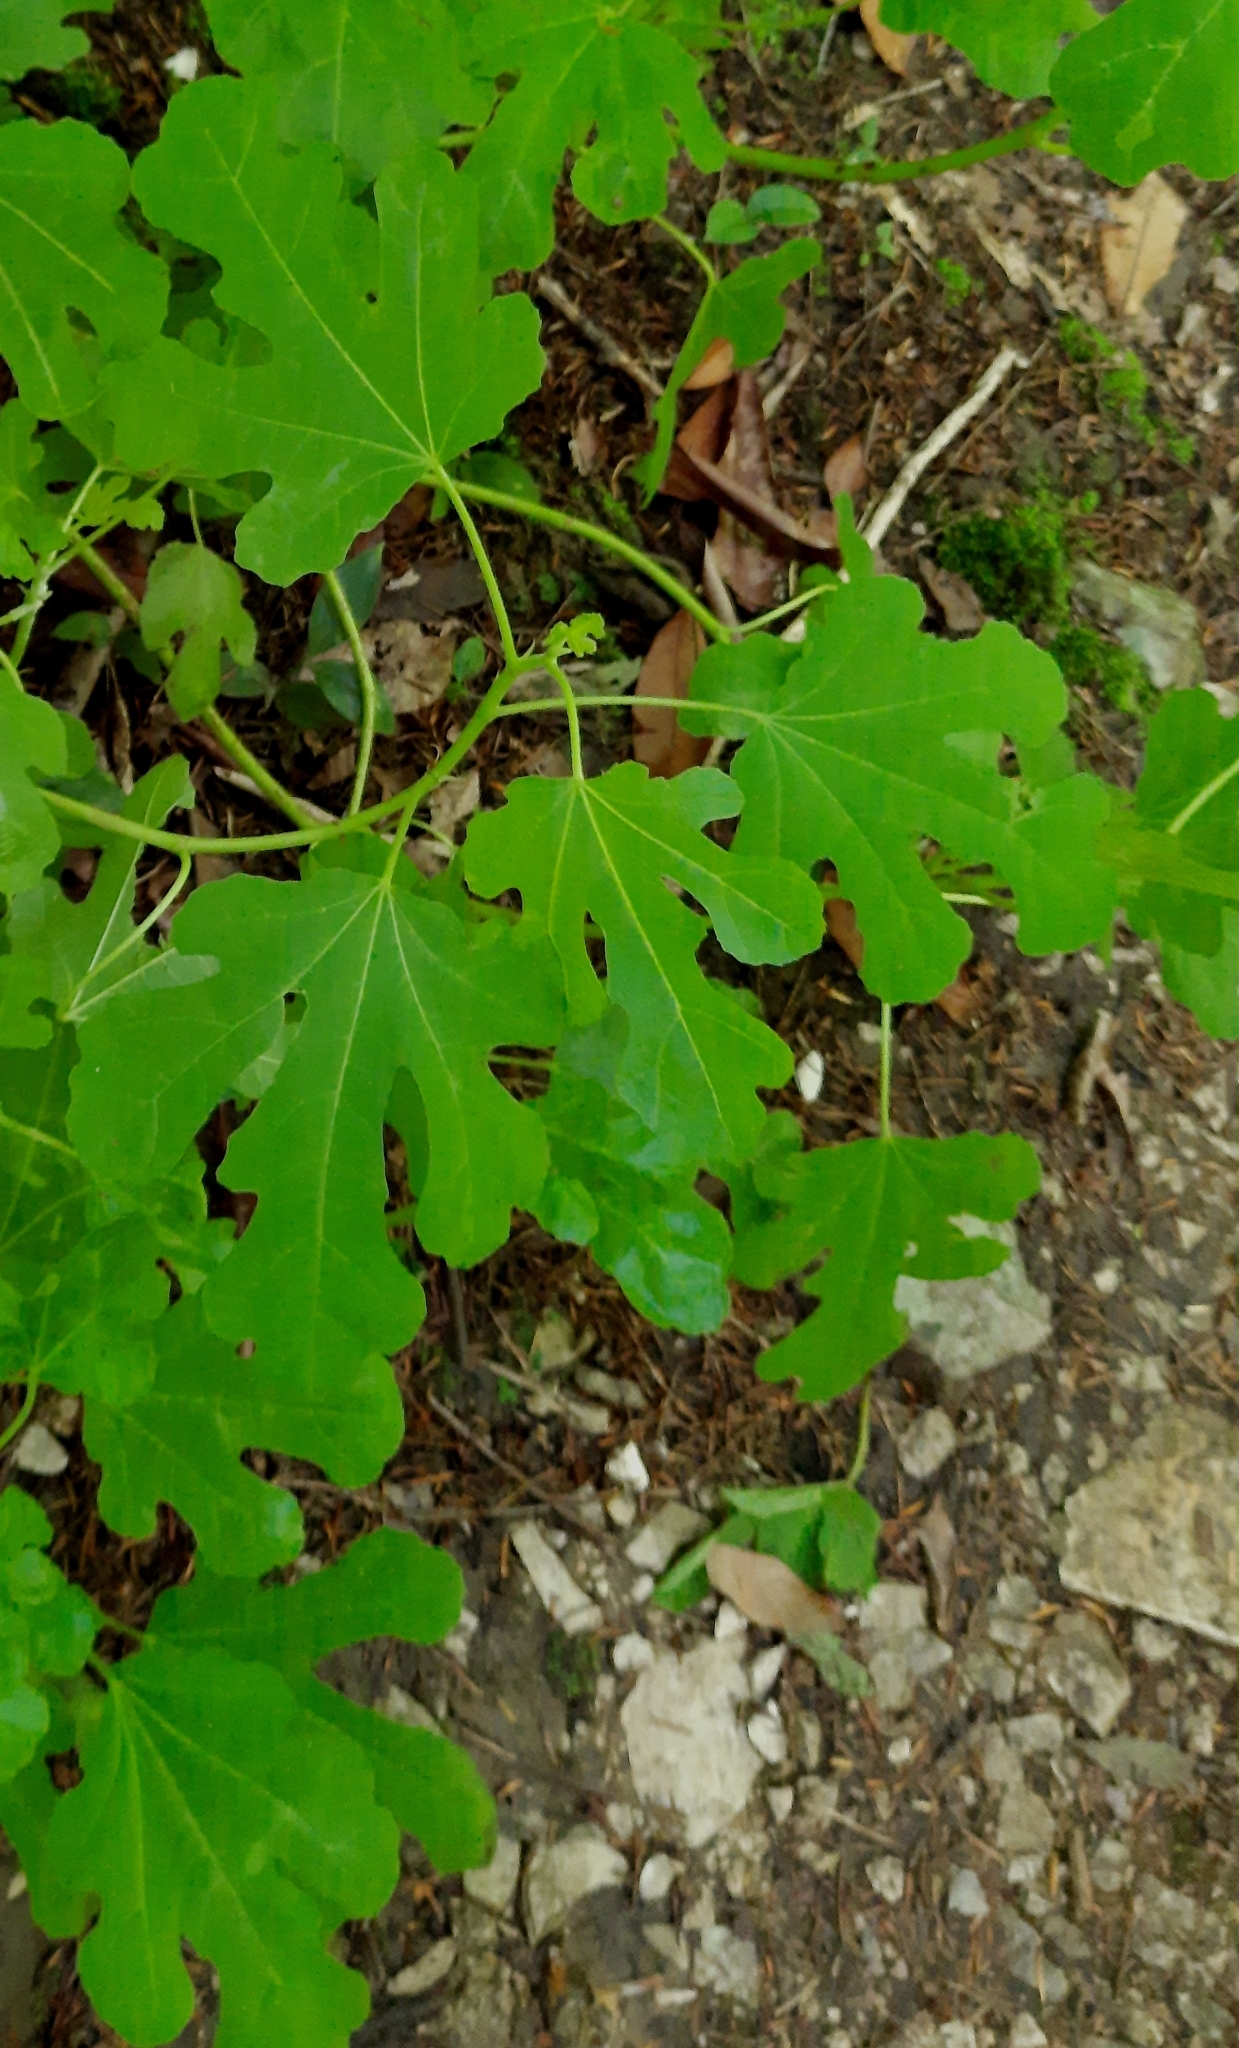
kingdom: Plantae
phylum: Tracheophyta
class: Magnoliopsida
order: Rosales
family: Moraceae
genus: Ficus
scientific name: Ficus carica
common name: Fig
